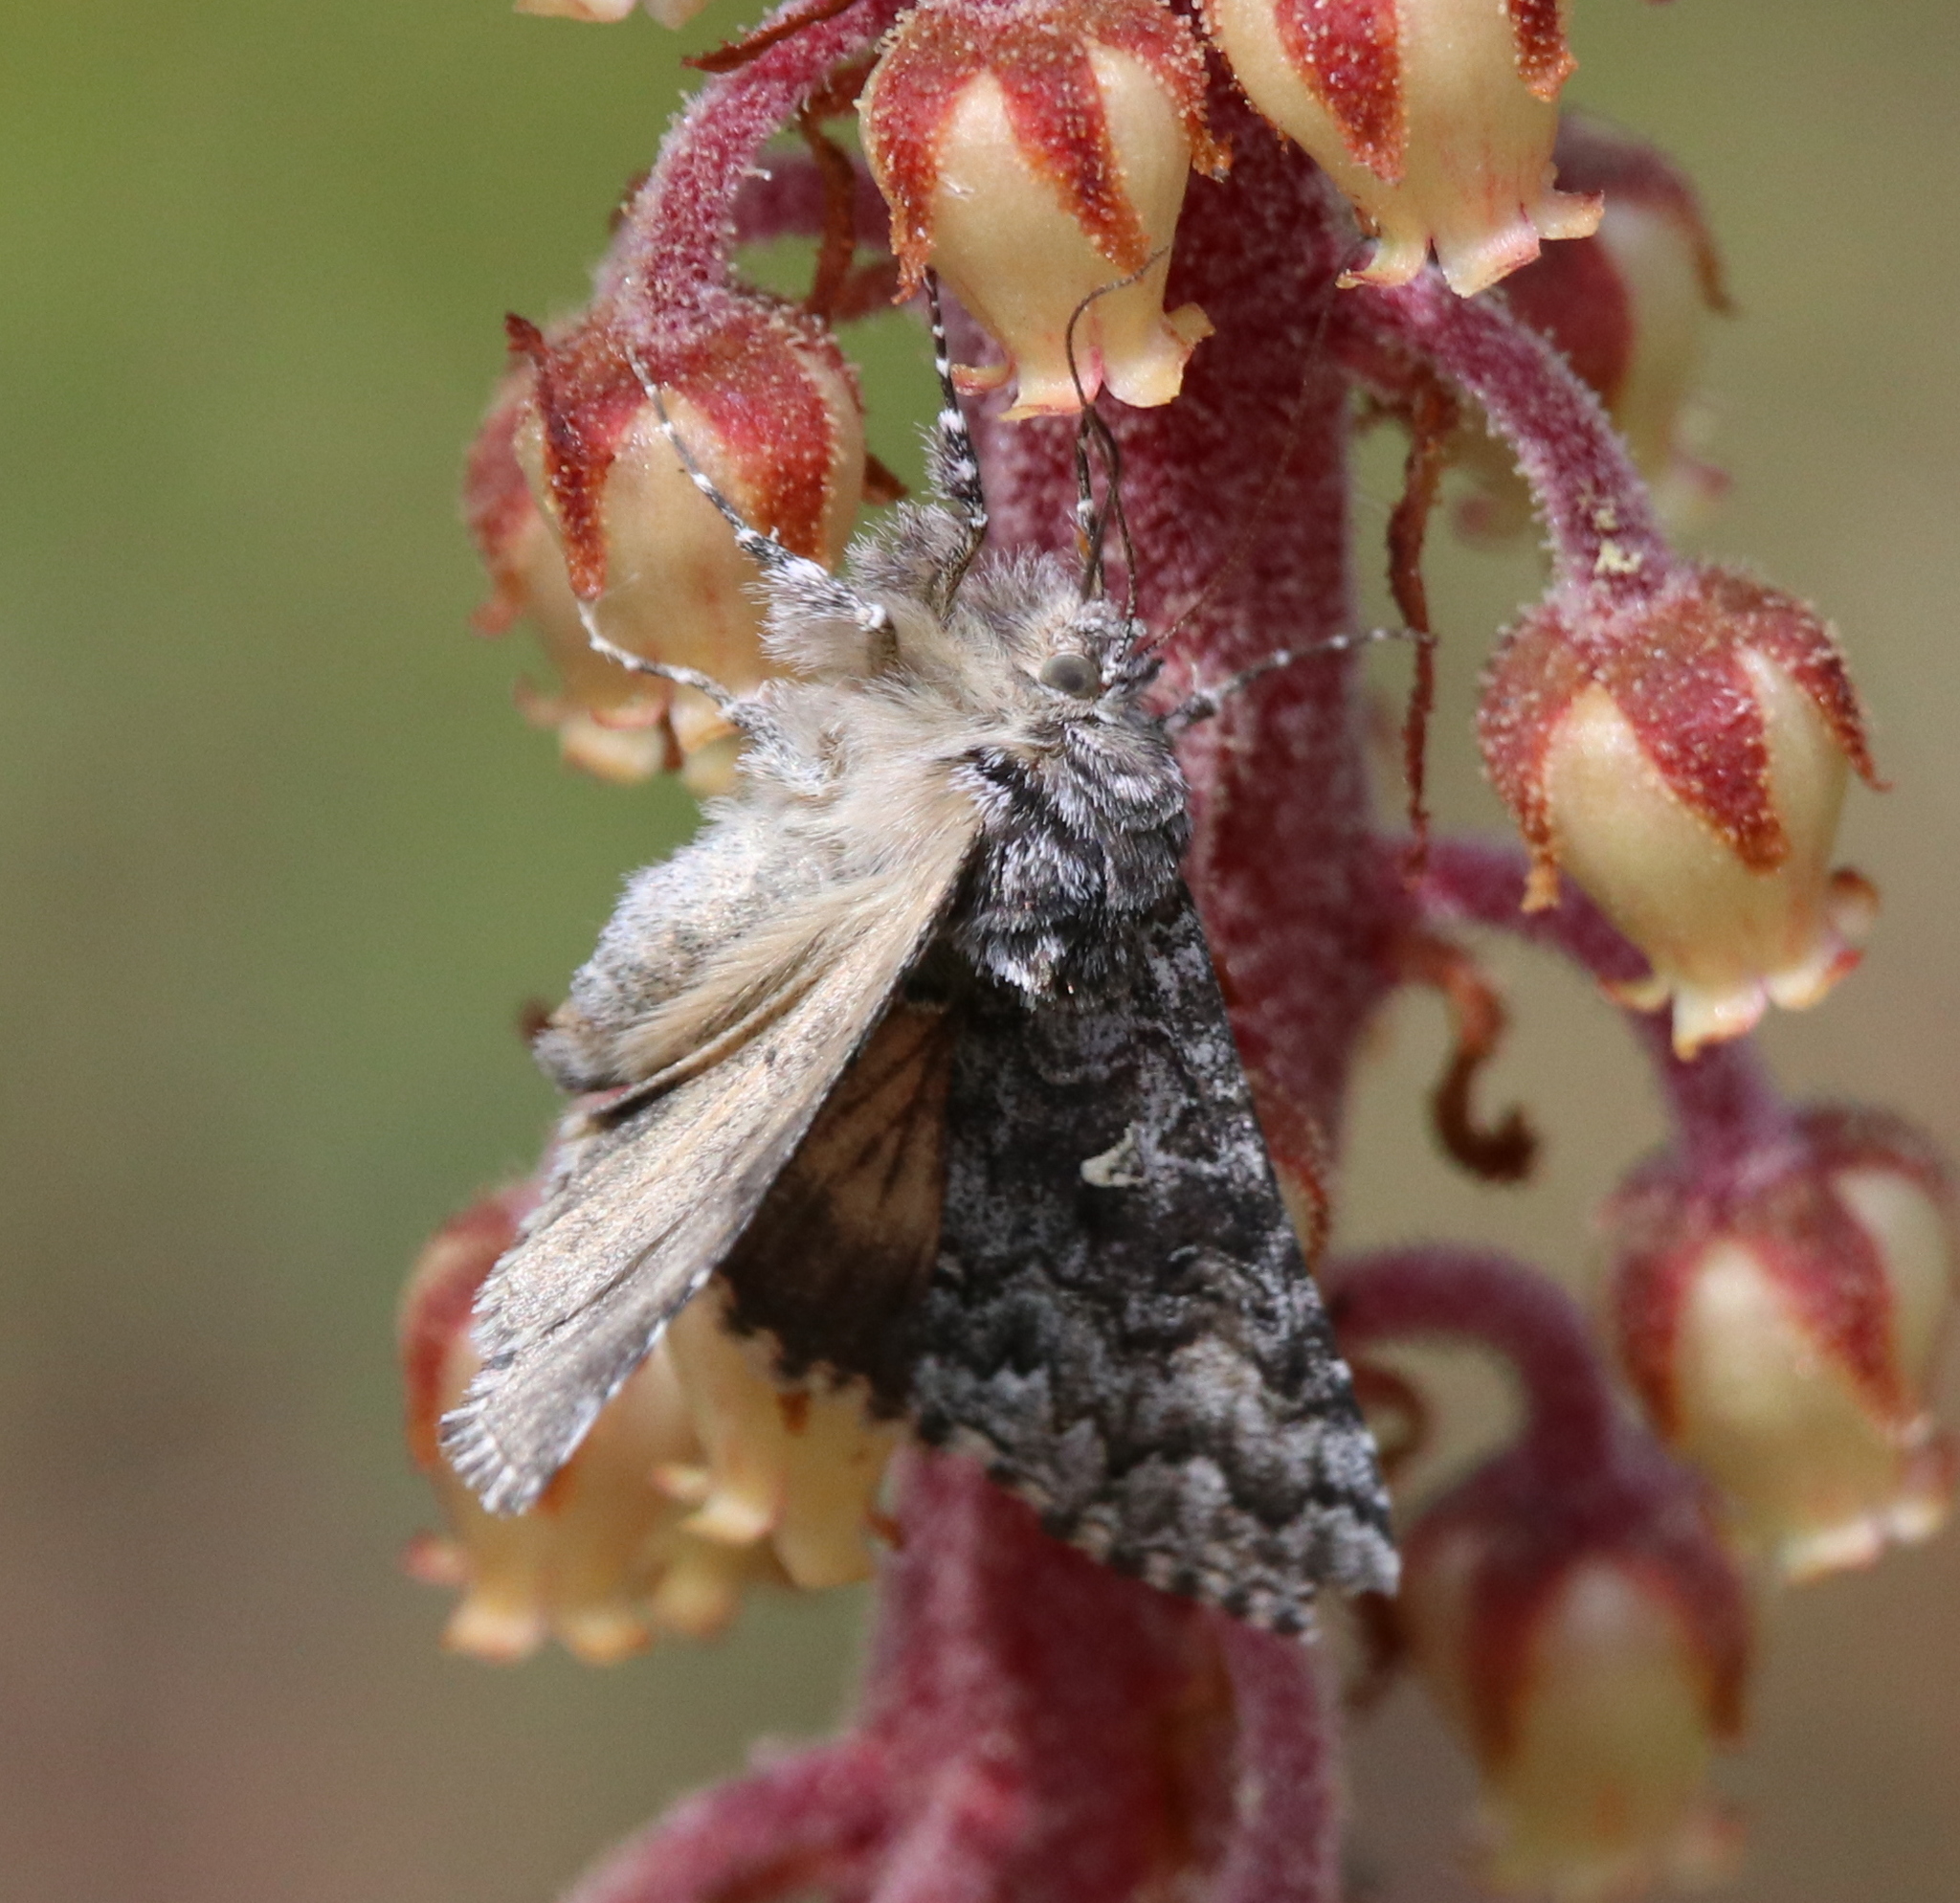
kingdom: Animalia
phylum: Arthropoda
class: Insecta
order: Lepidoptera
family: Noctuidae
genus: Syngrapha
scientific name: Syngrapha angulidens
